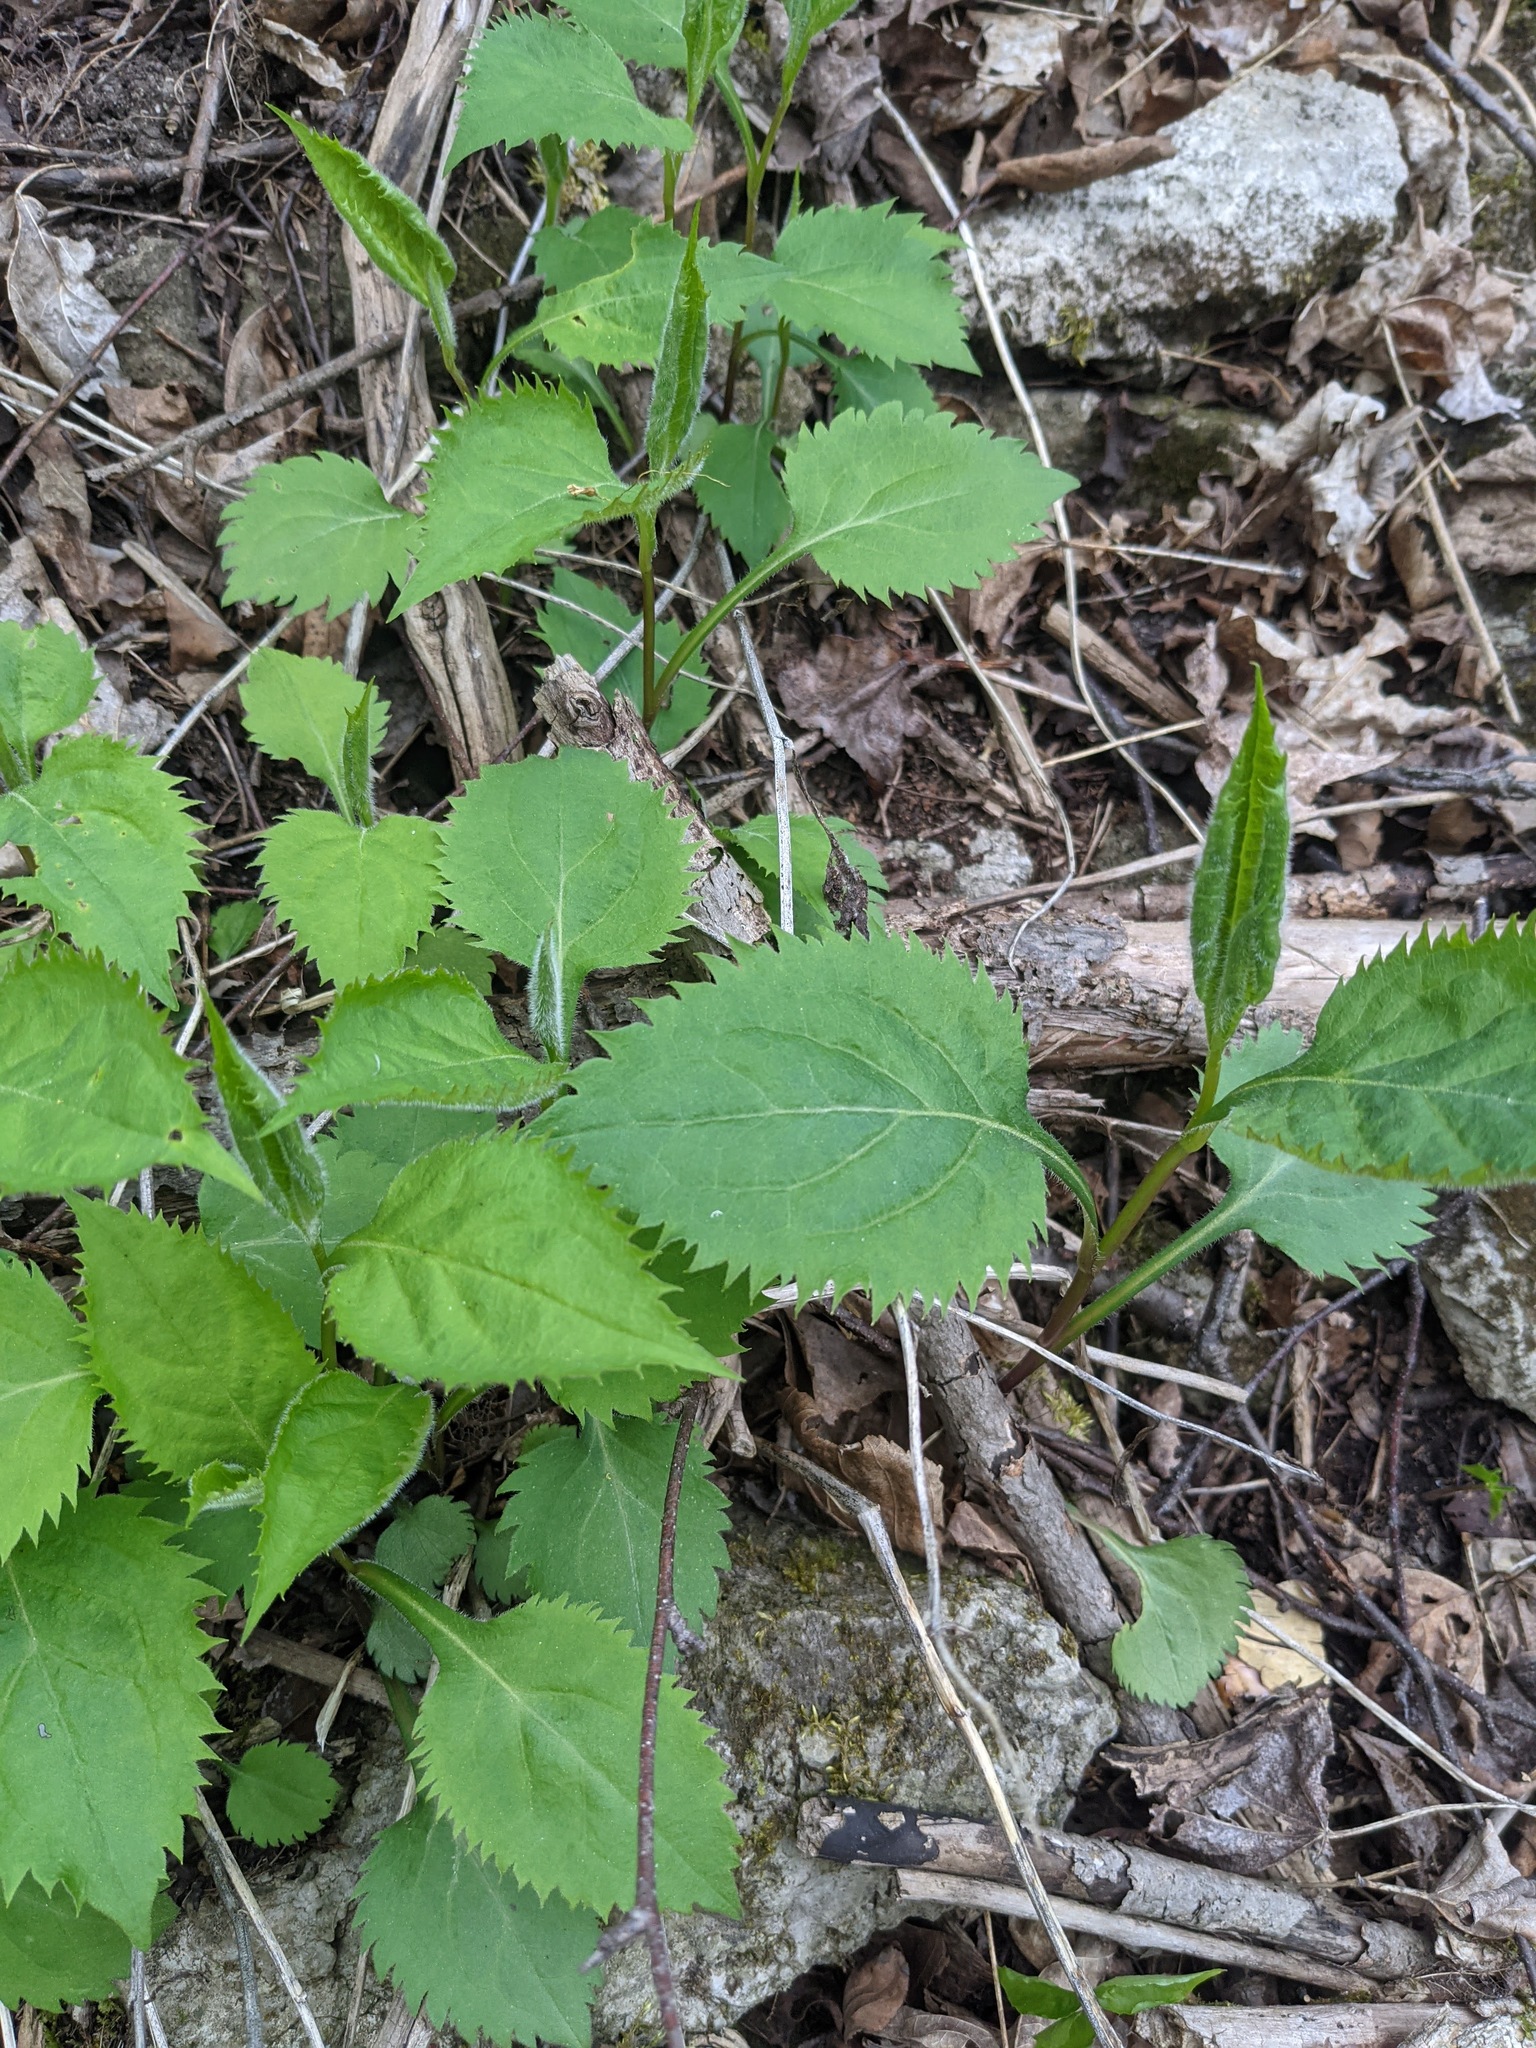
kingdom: Plantae
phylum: Tracheophyta
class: Magnoliopsida
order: Asterales
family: Asteraceae
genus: Solidago
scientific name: Solidago flexicaulis
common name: Zig-zag goldenrod
